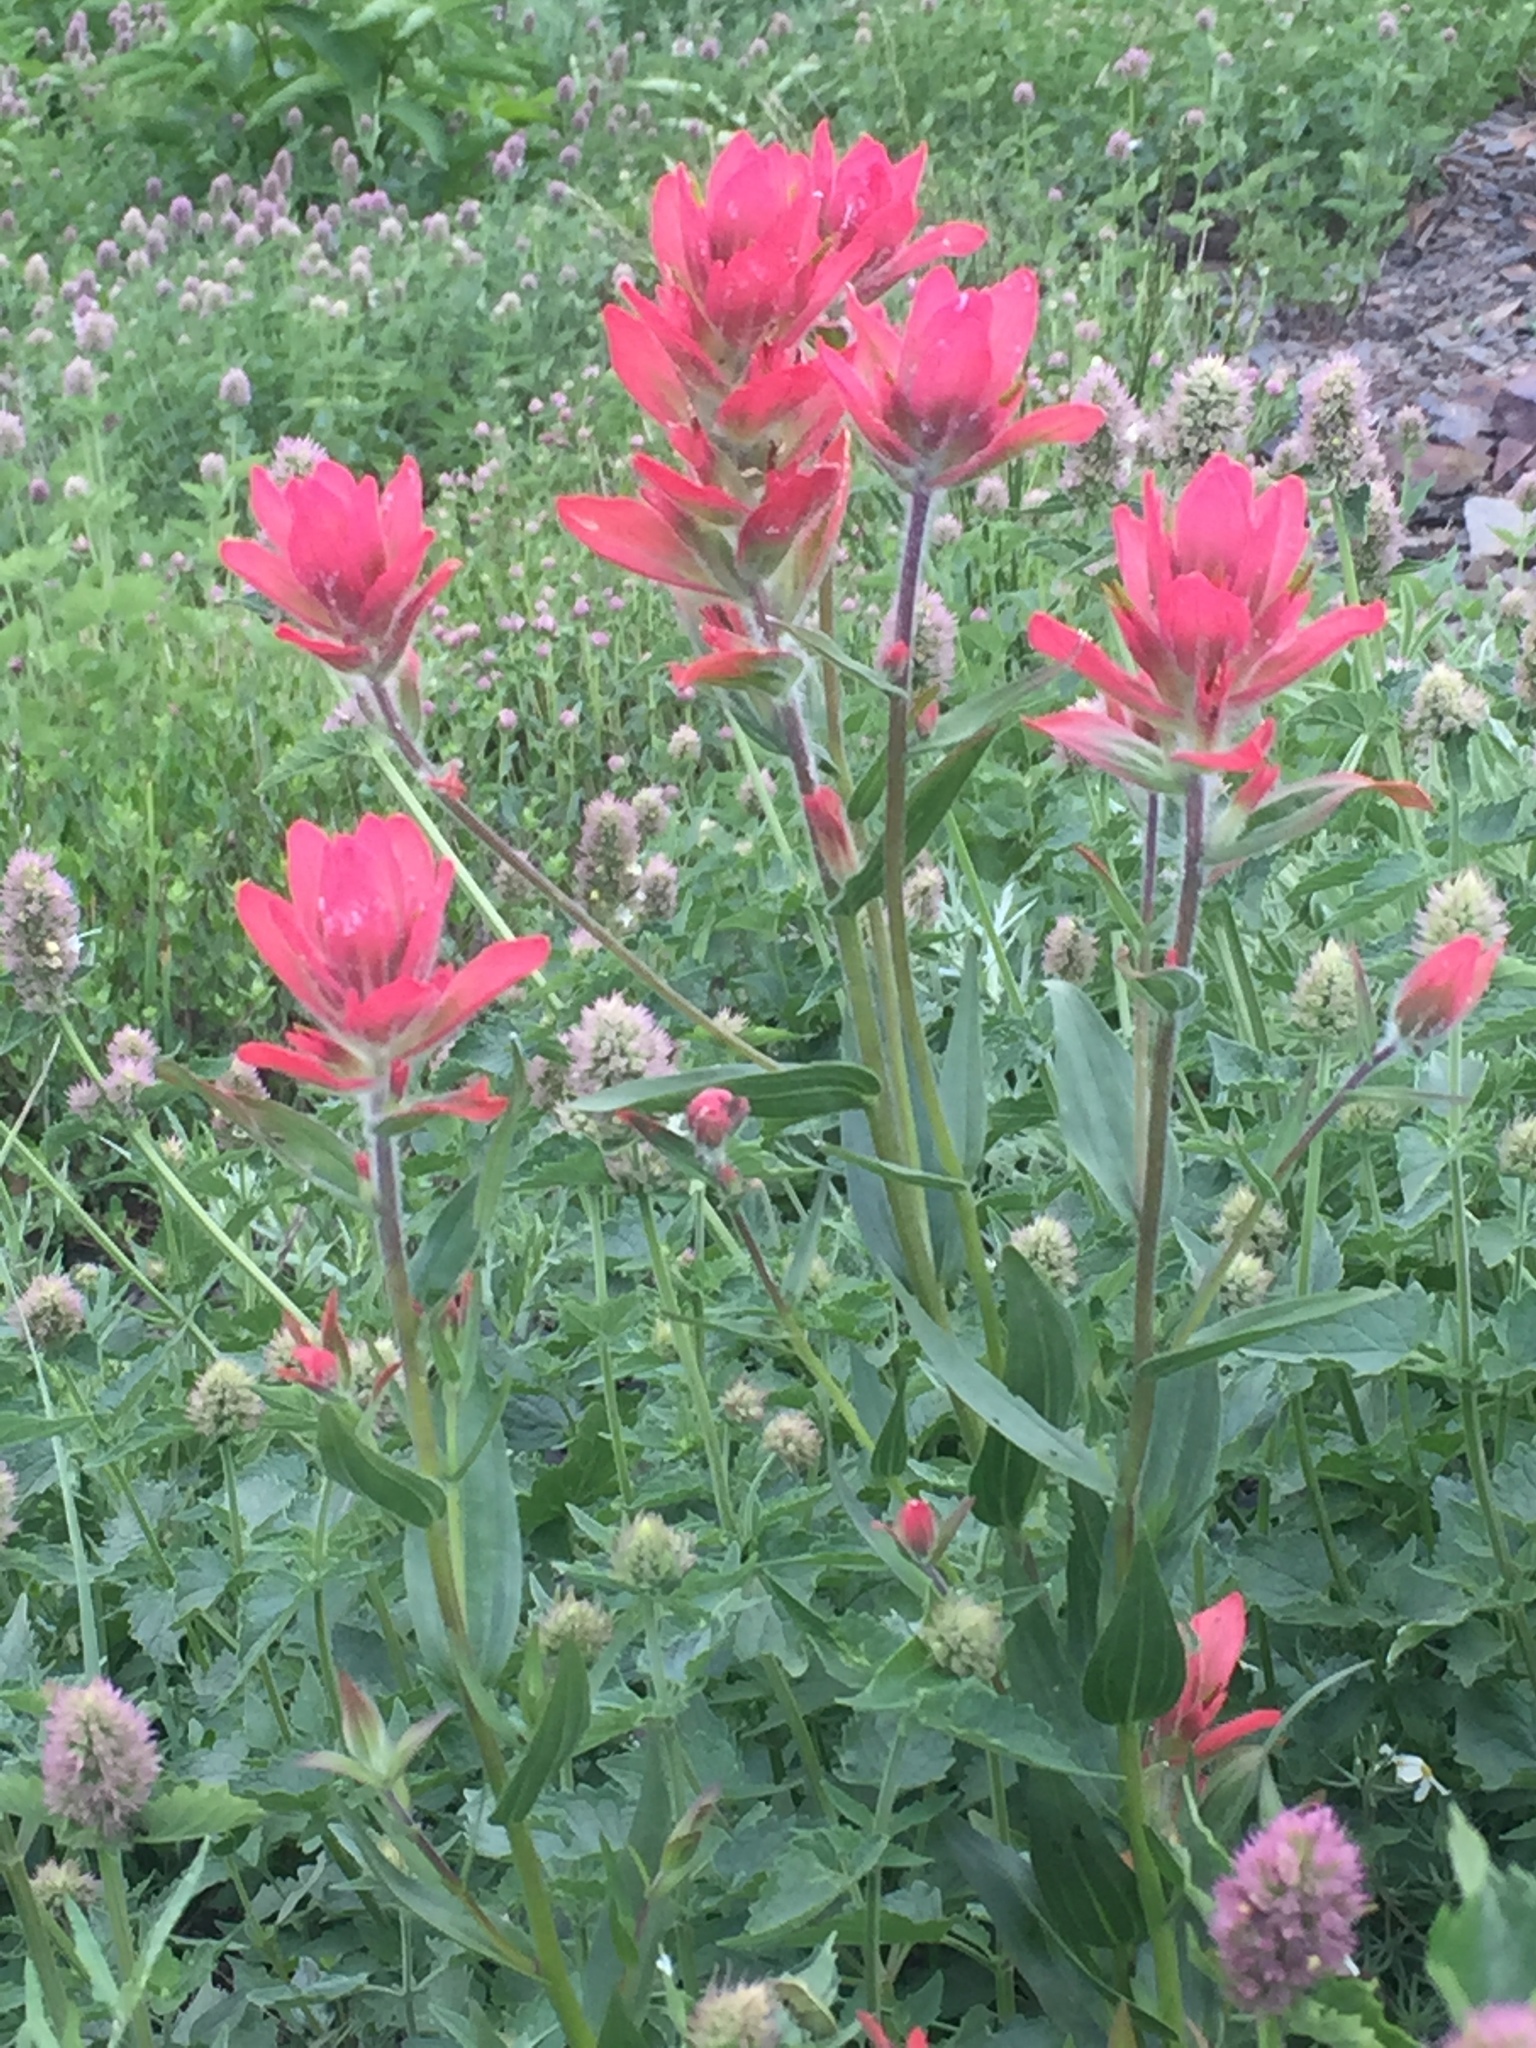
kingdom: Plantae
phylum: Tracheophyta
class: Magnoliopsida
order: Lamiales
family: Orobanchaceae
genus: Castilleja
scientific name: Castilleja rhexifolia
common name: Rocky mountain paintbrush
